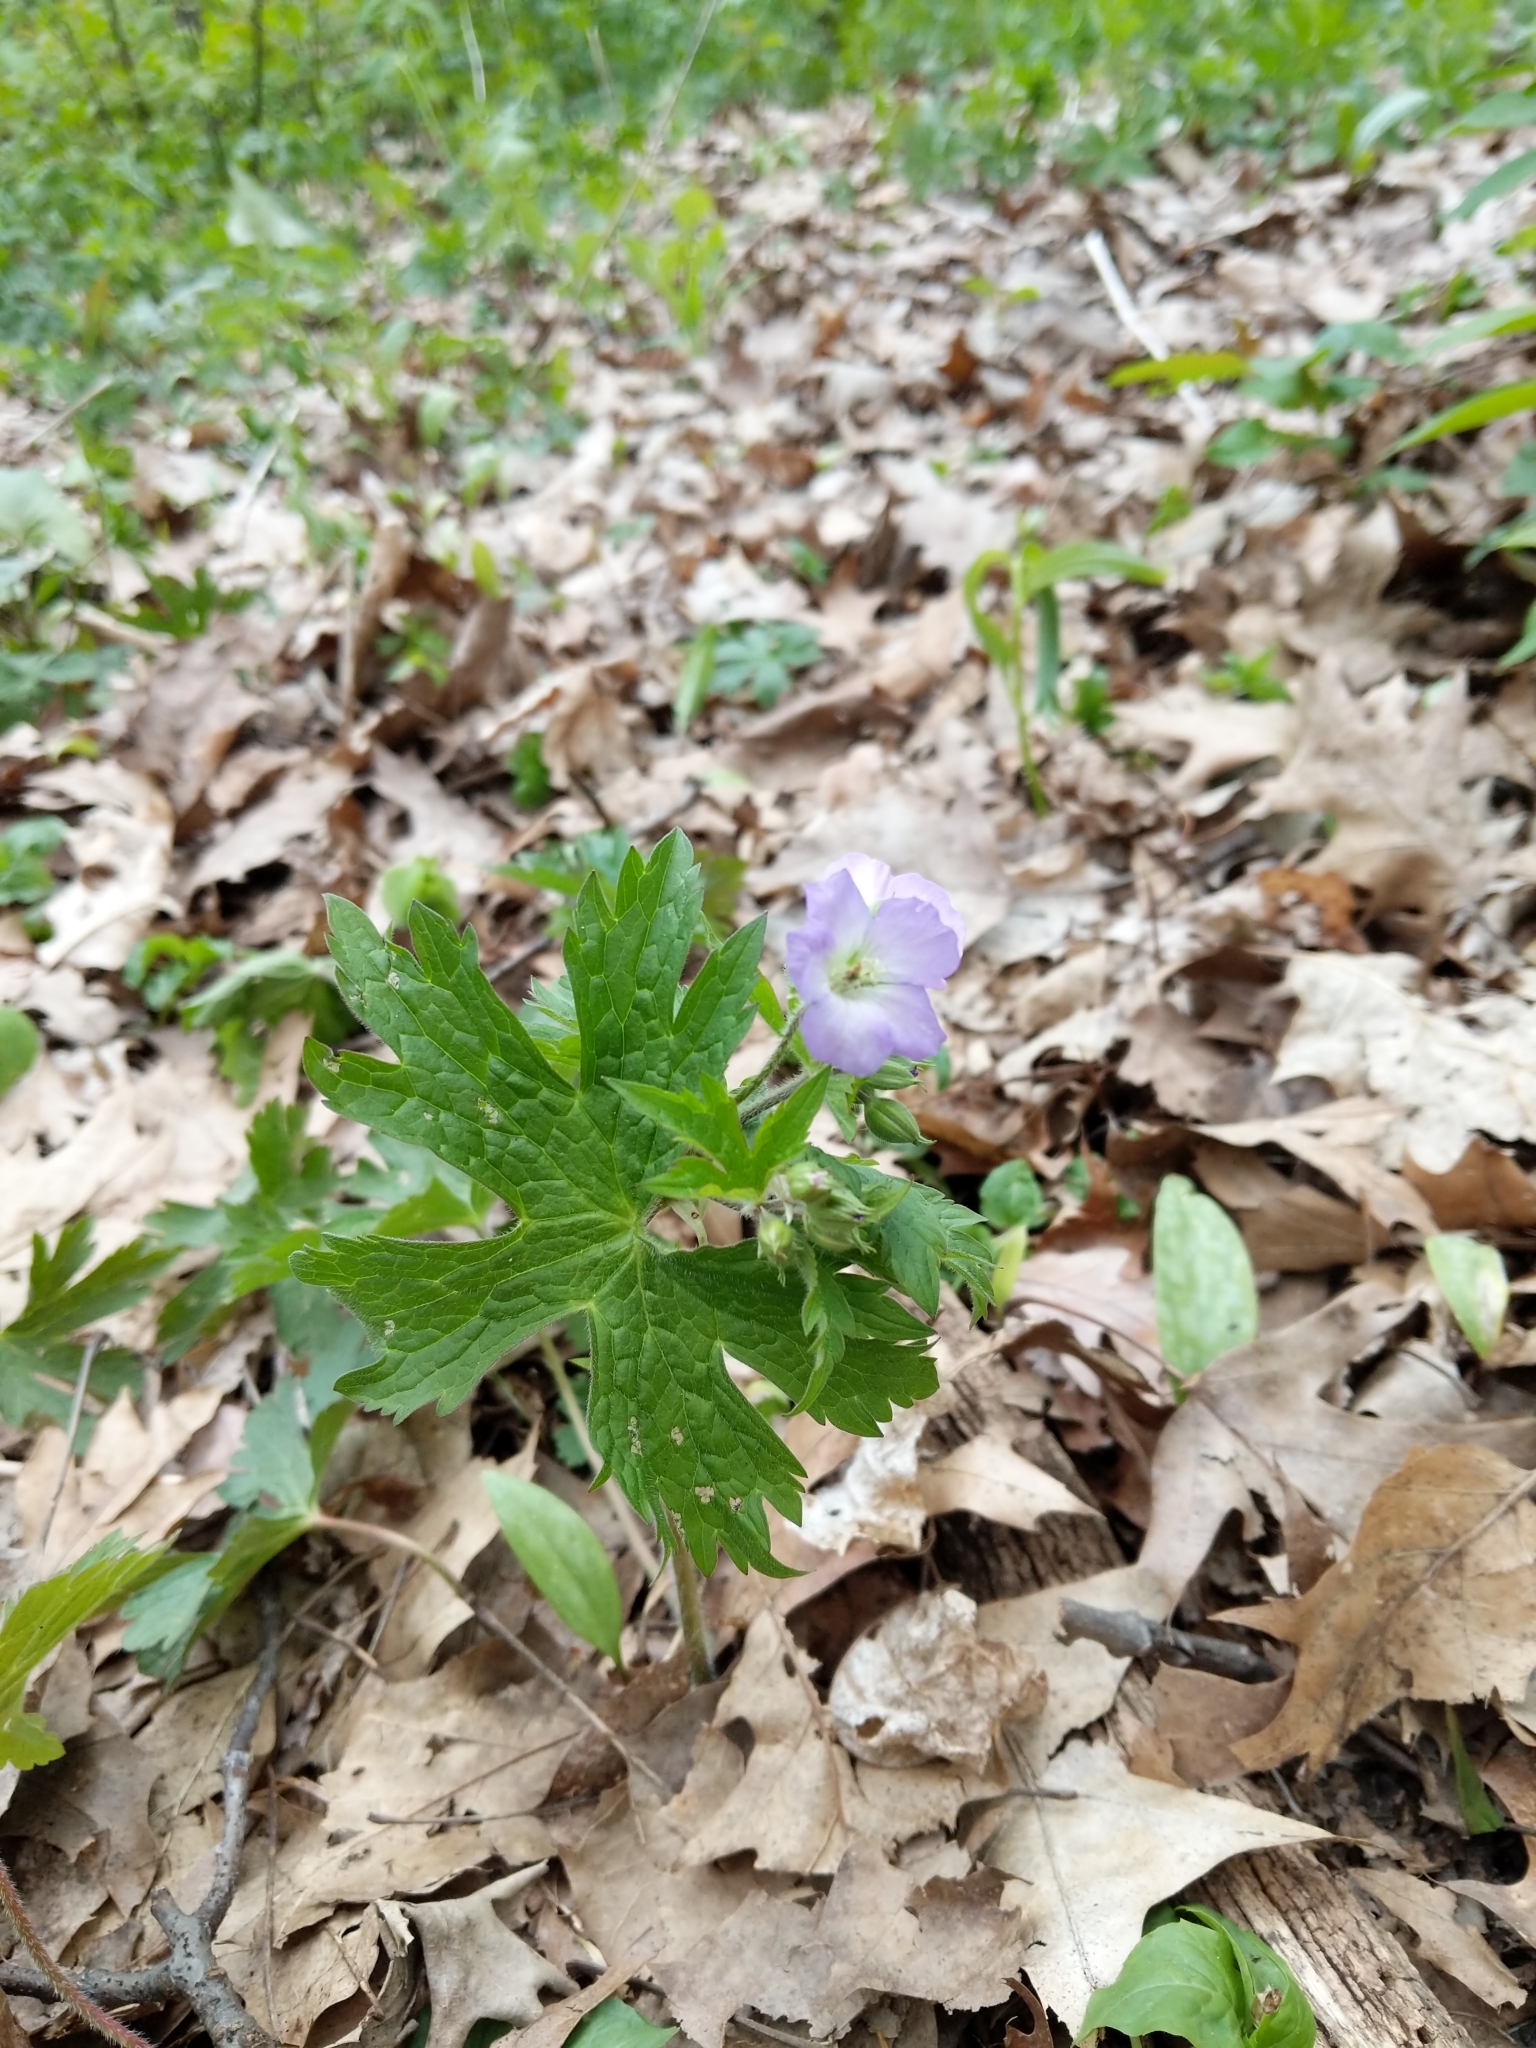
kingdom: Plantae
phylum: Tracheophyta
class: Magnoliopsida
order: Geraniales
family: Geraniaceae
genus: Geranium
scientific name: Geranium maculatum
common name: Spotted geranium
